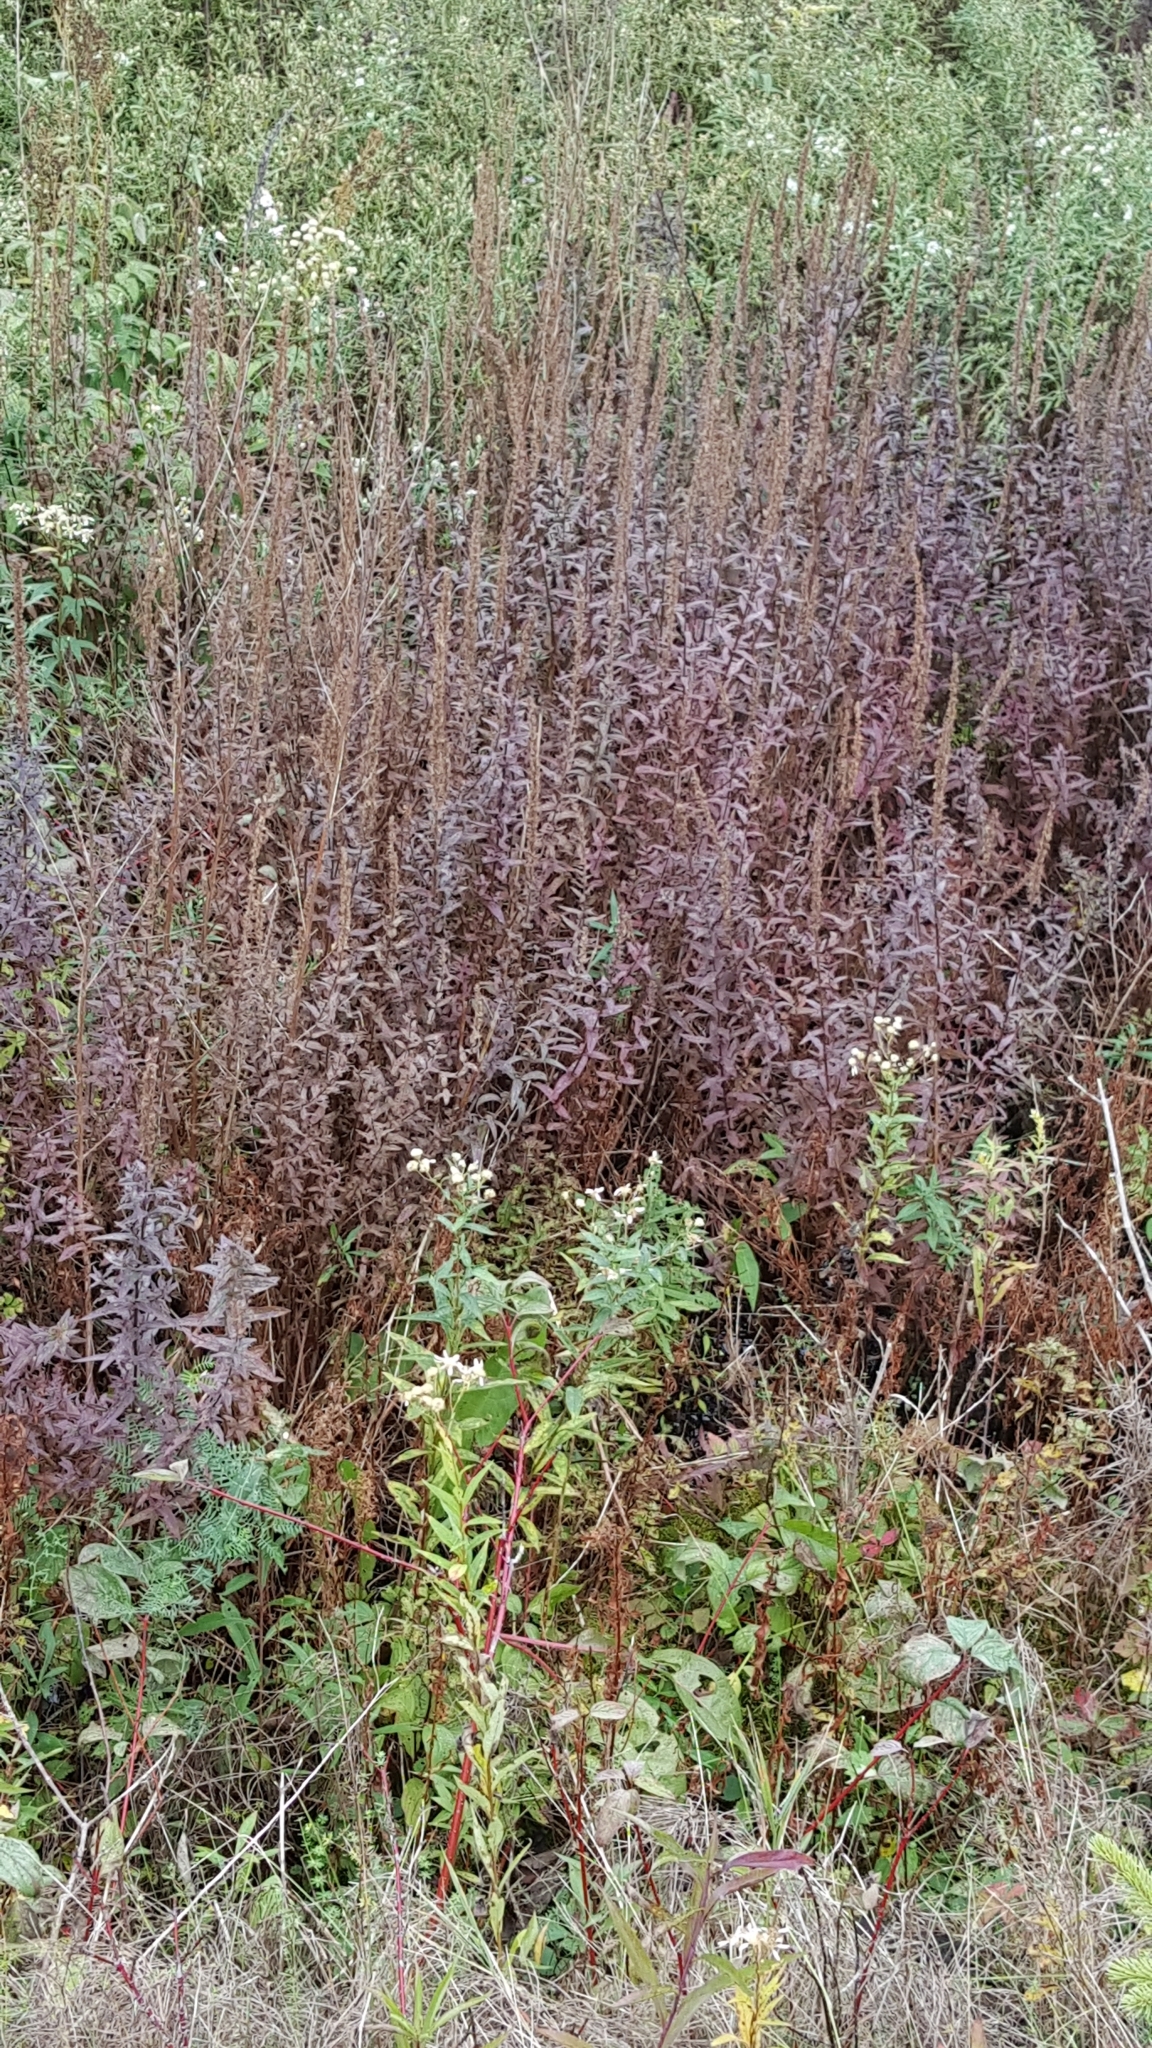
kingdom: Plantae
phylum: Tracheophyta
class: Magnoliopsida
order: Myrtales
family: Lythraceae
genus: Lythrum
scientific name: Lythrum salicaria
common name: Purple loosestrife
